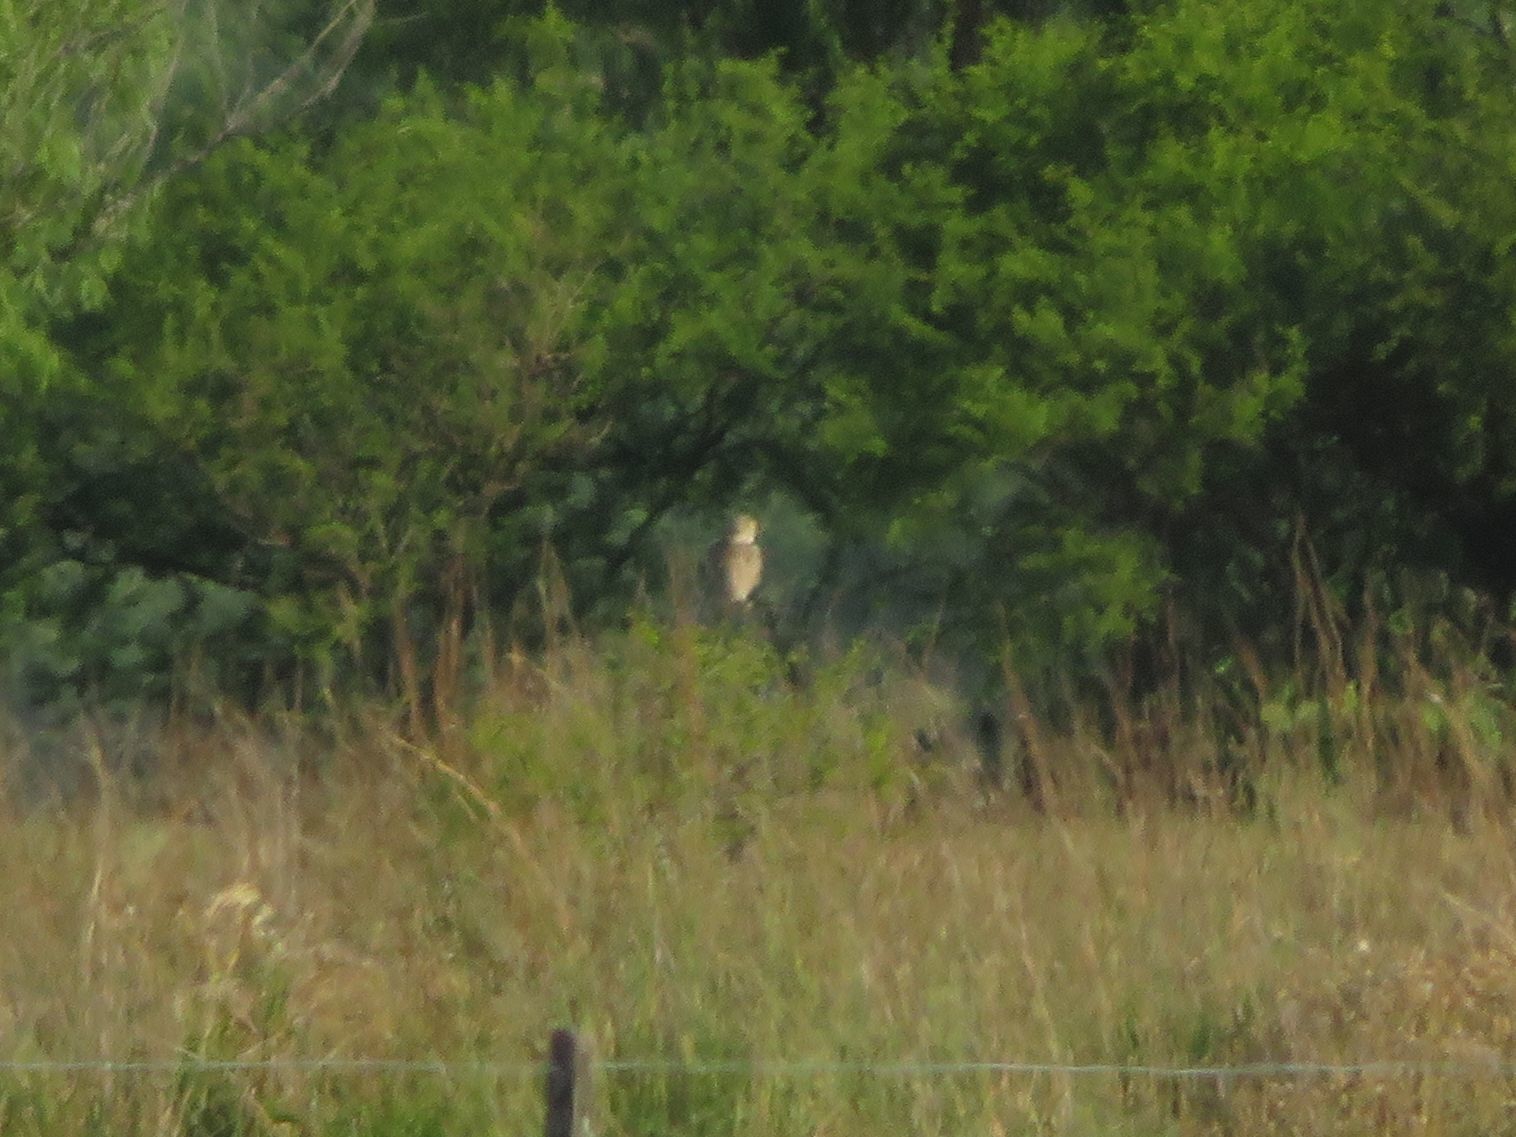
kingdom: Animalia
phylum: Chordata
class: Aves
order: Strigiformes
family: Strigidae
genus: Athene
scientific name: Athene cunicularia
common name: Burrowing owl
